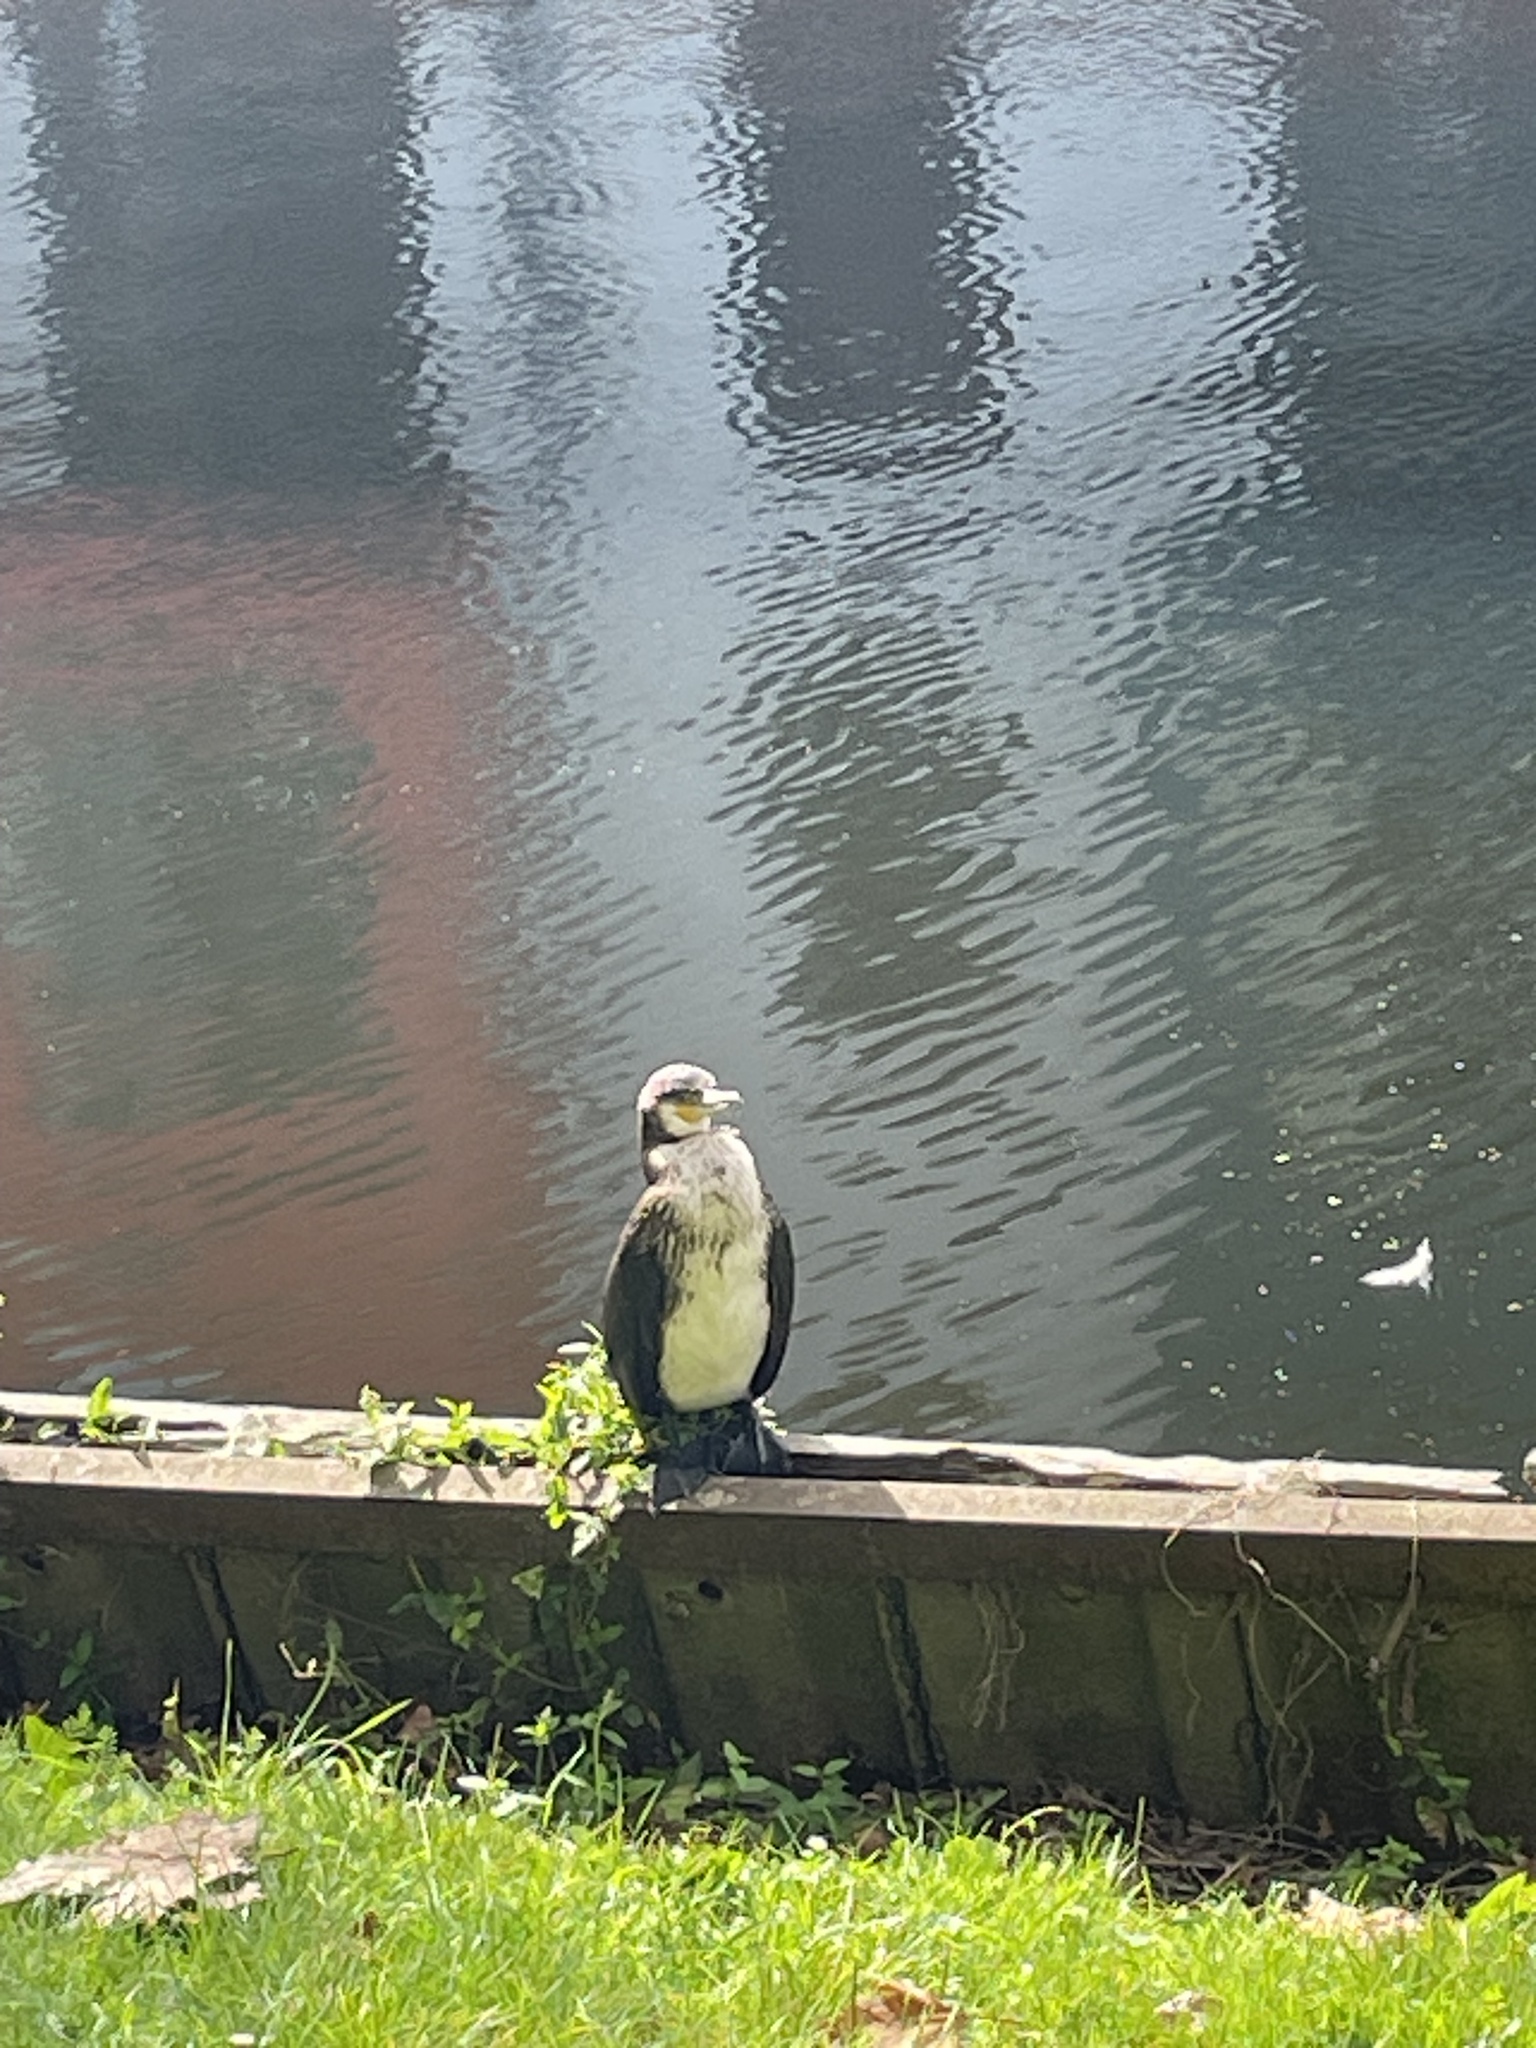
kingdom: Animalia
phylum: Chordata
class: Aves
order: Suliformes
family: Phalacrocoracidae
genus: Phalacrocorax
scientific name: Phalacrocorax carbo
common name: Great cormorant
